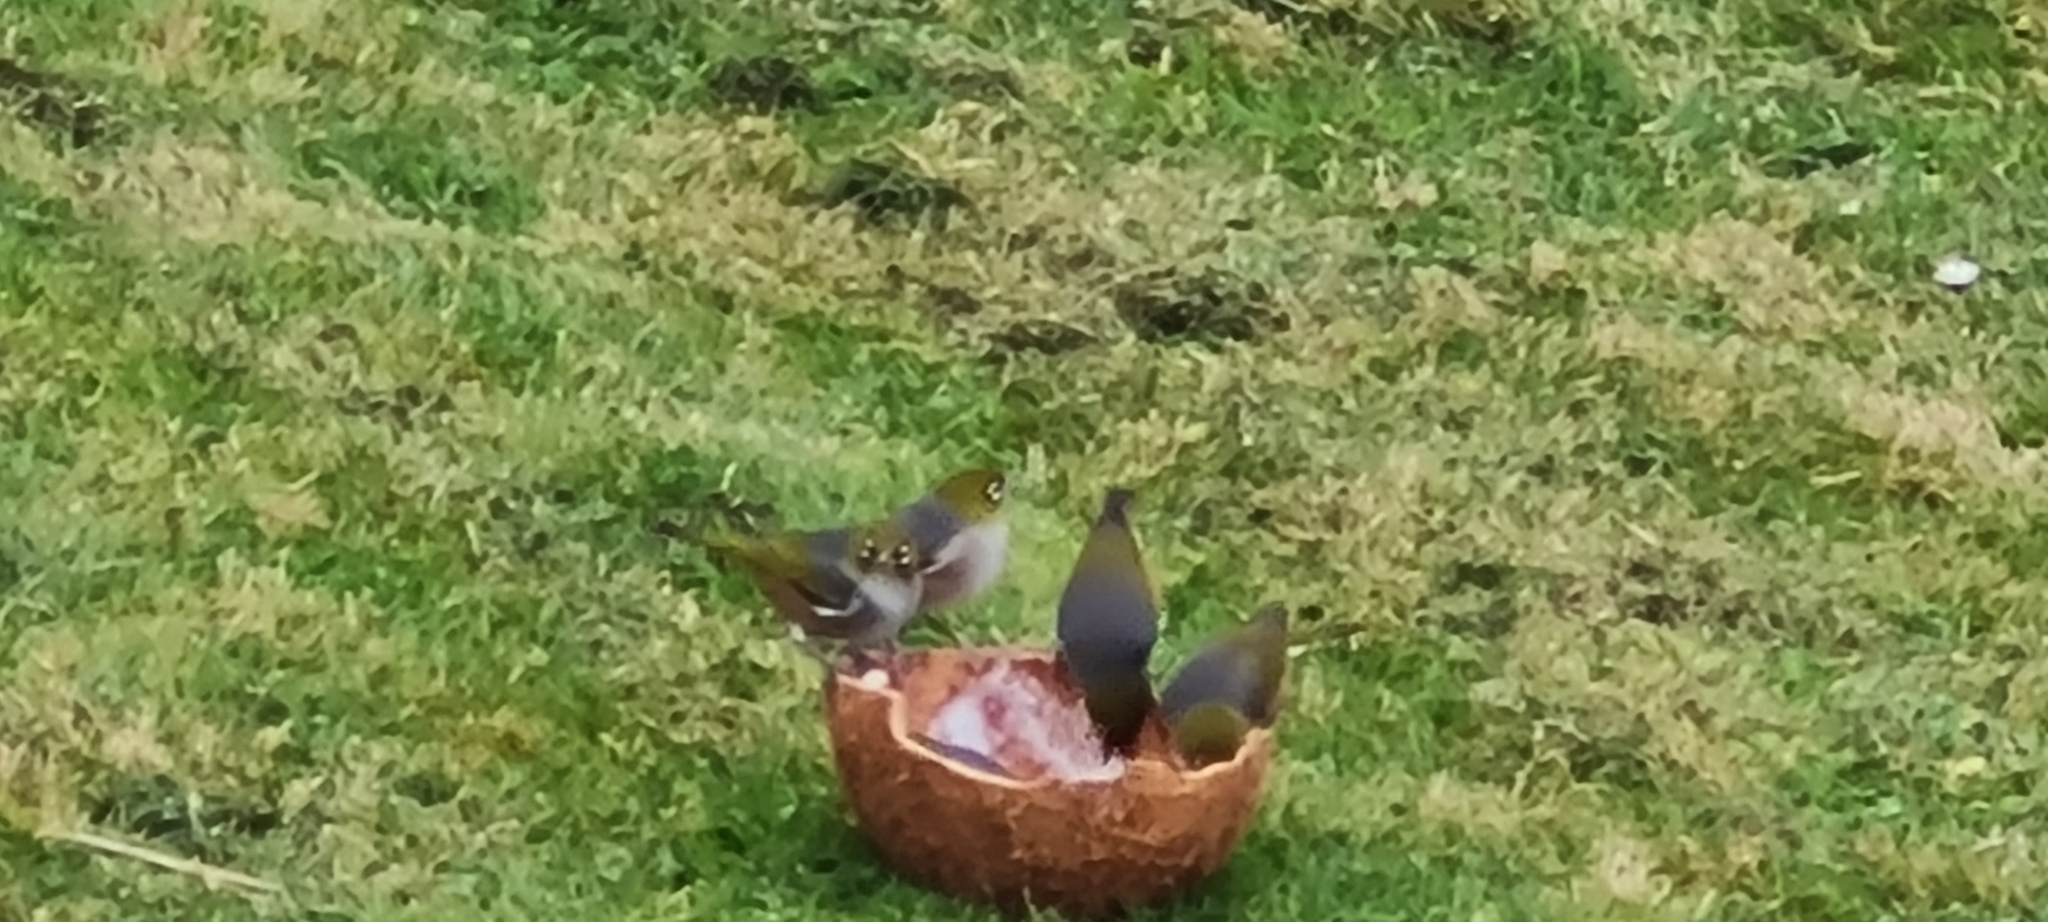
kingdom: Animalia
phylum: Chordata
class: Aves
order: Passeriformes
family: Zosteropidae
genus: Zosterops
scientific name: Zosterops lateralis
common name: Silvereye
